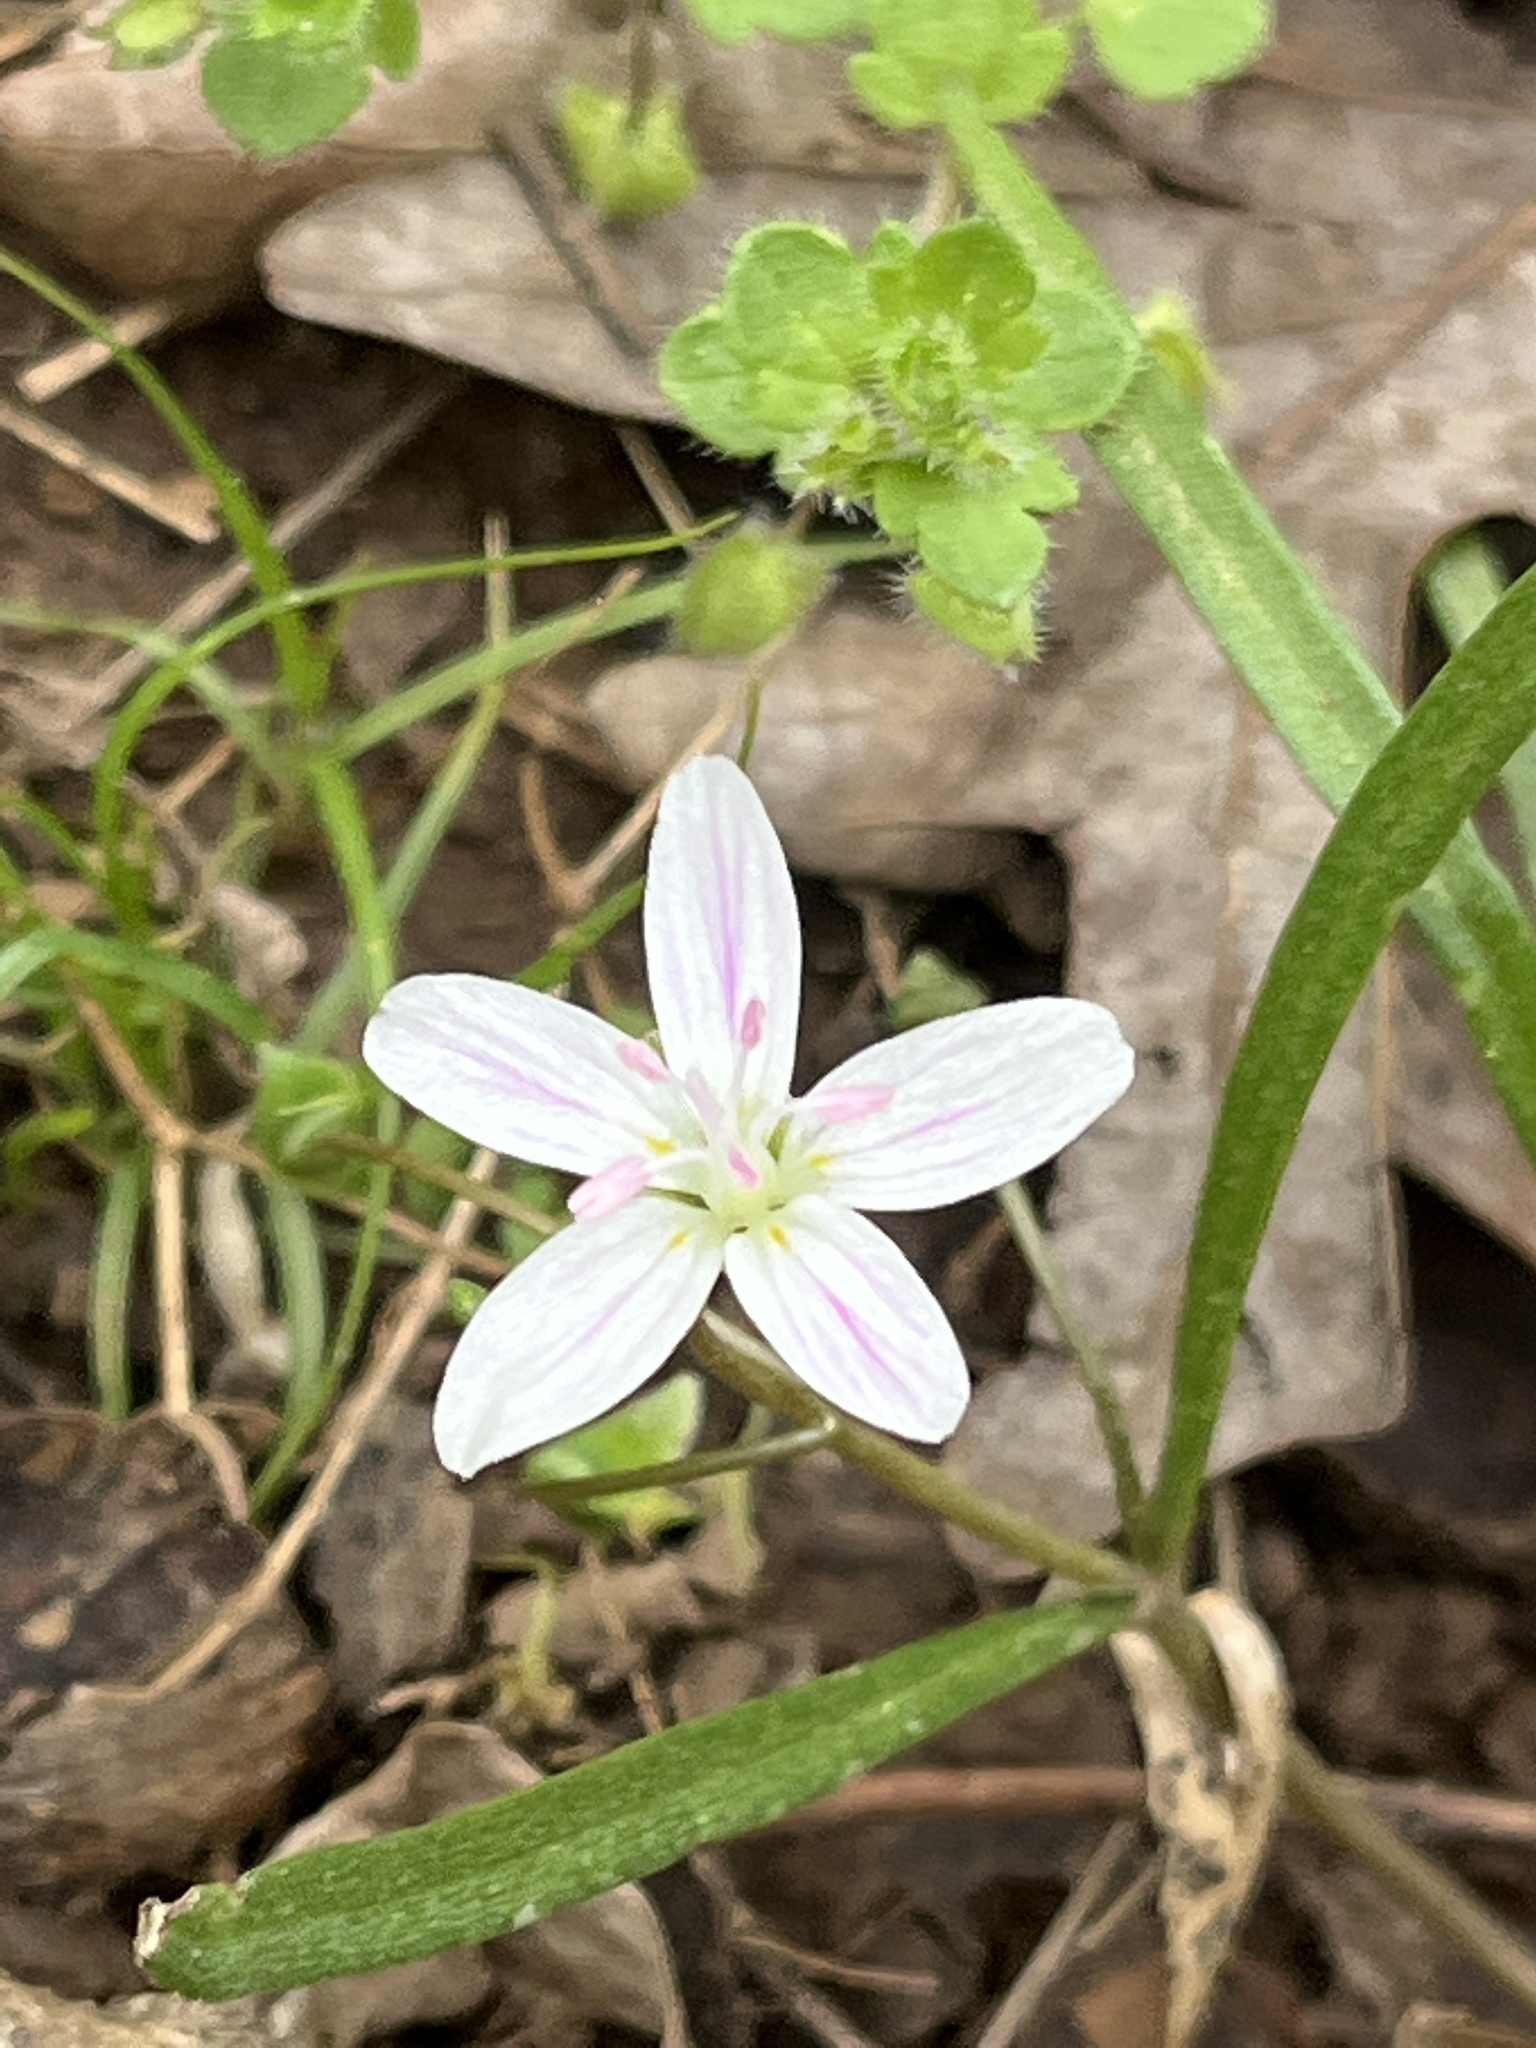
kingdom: Plantae
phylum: Tracheophyta
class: Magnoliopsida
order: Caryophyllales
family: Montiaceae
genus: Claytonia
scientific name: Claytonia virginica
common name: Virginia springbeauty
